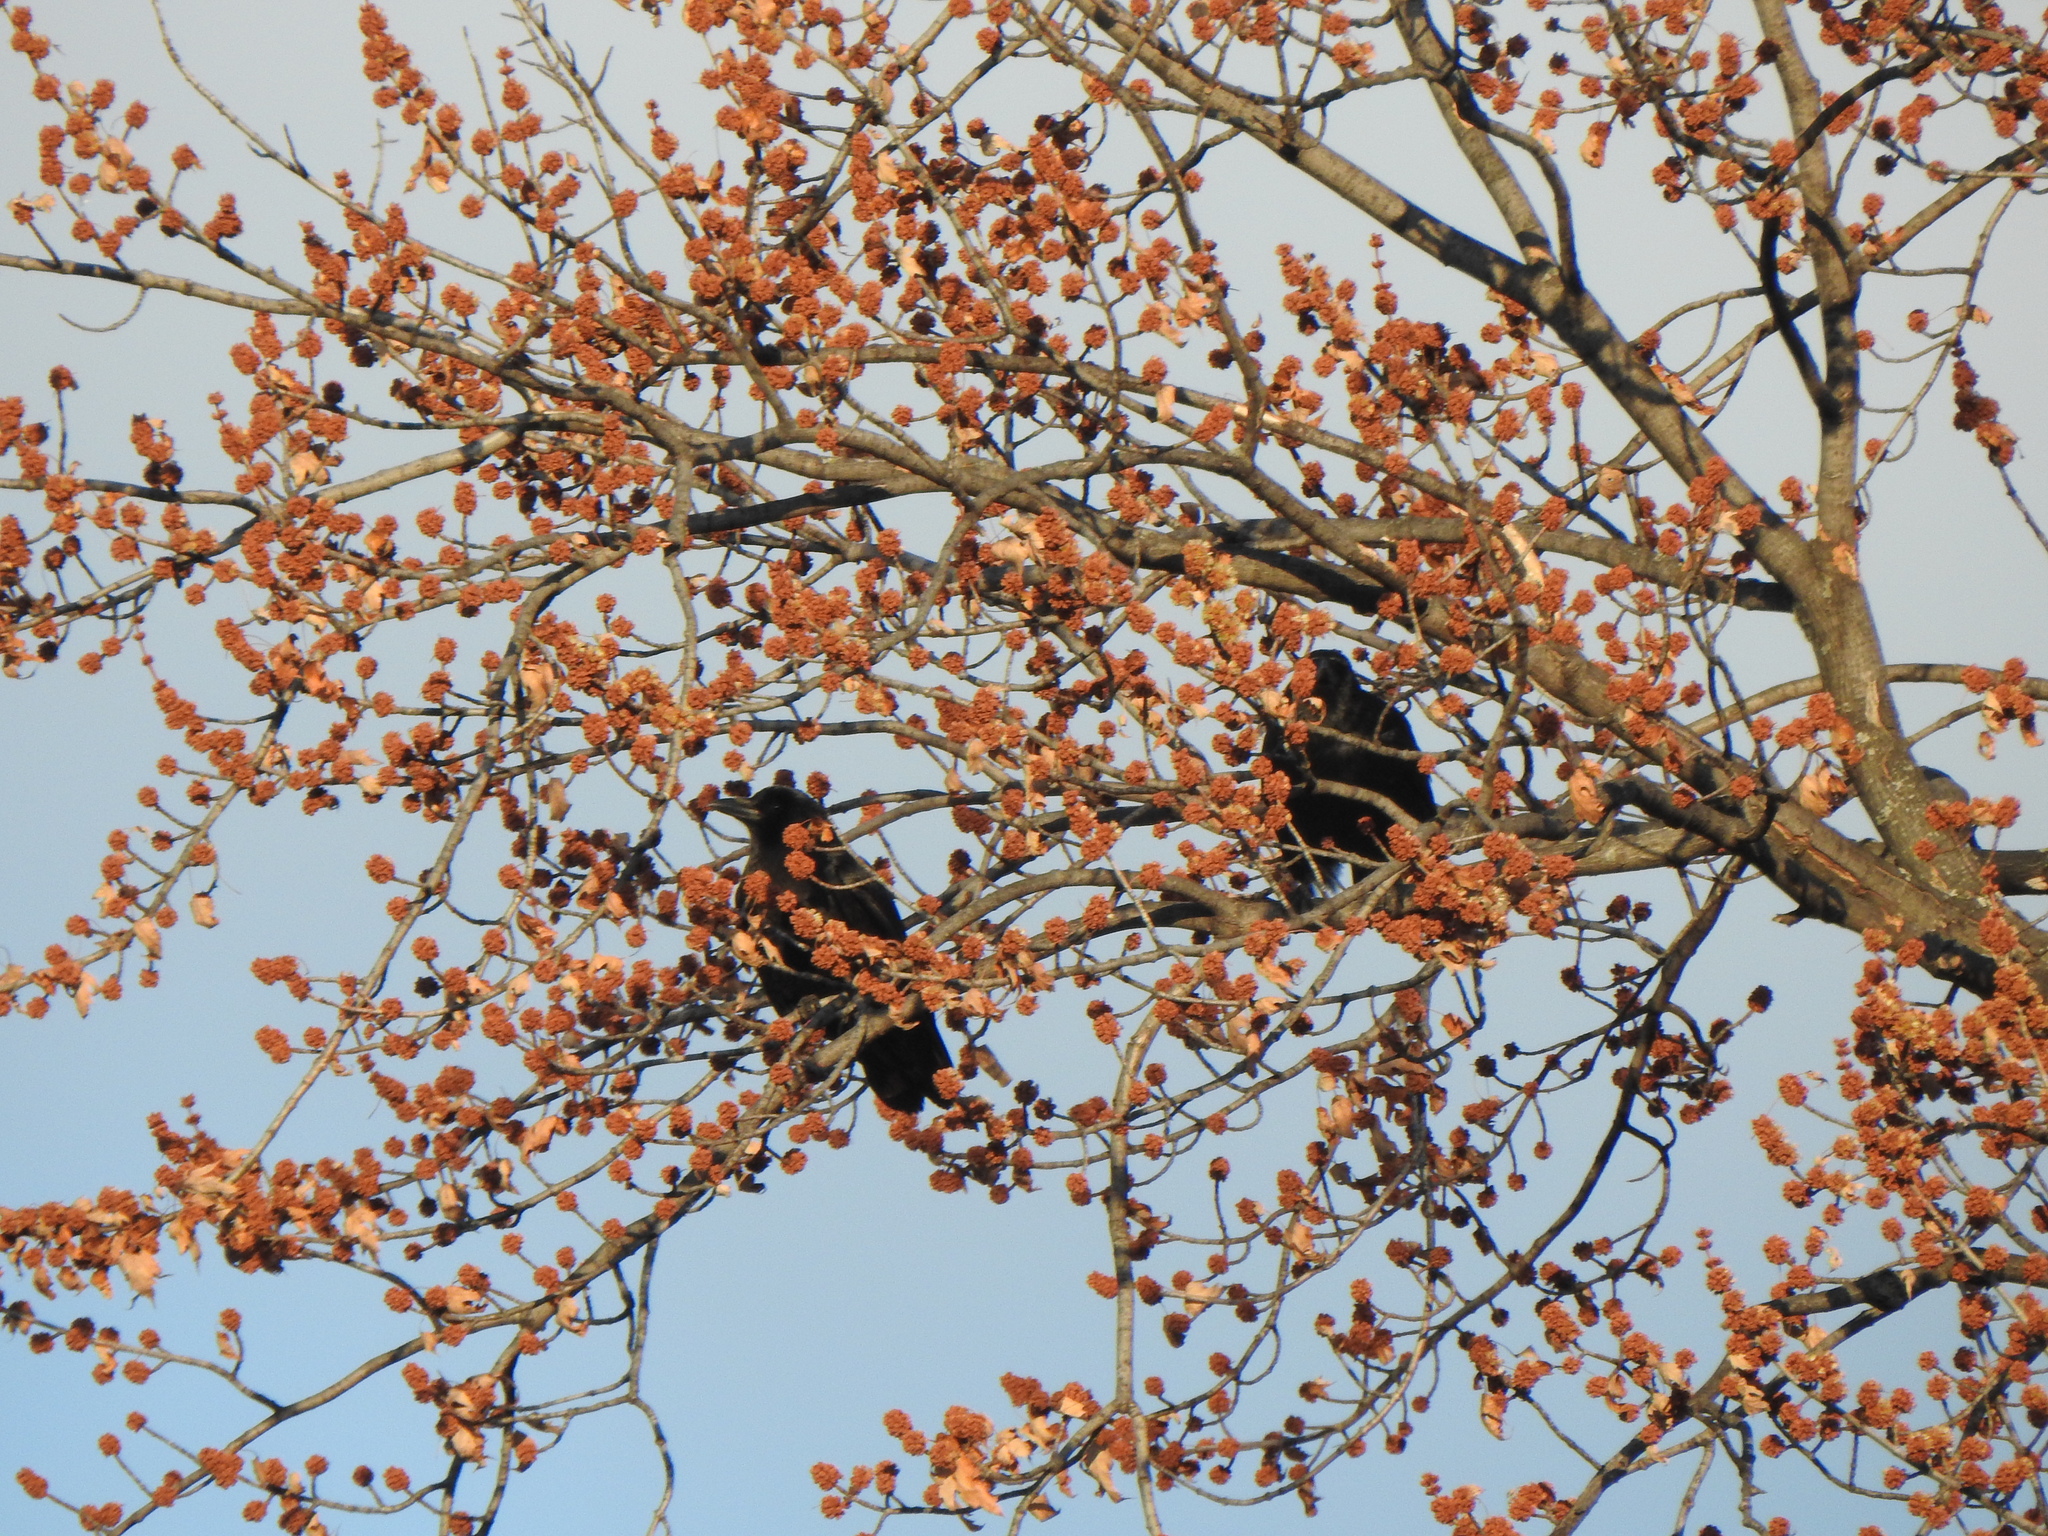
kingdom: Animalia
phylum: Chordata
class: Aves
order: Passeriformes
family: Corvidae
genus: Corvus
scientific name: Corvus brachyrhynchos
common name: American crow
